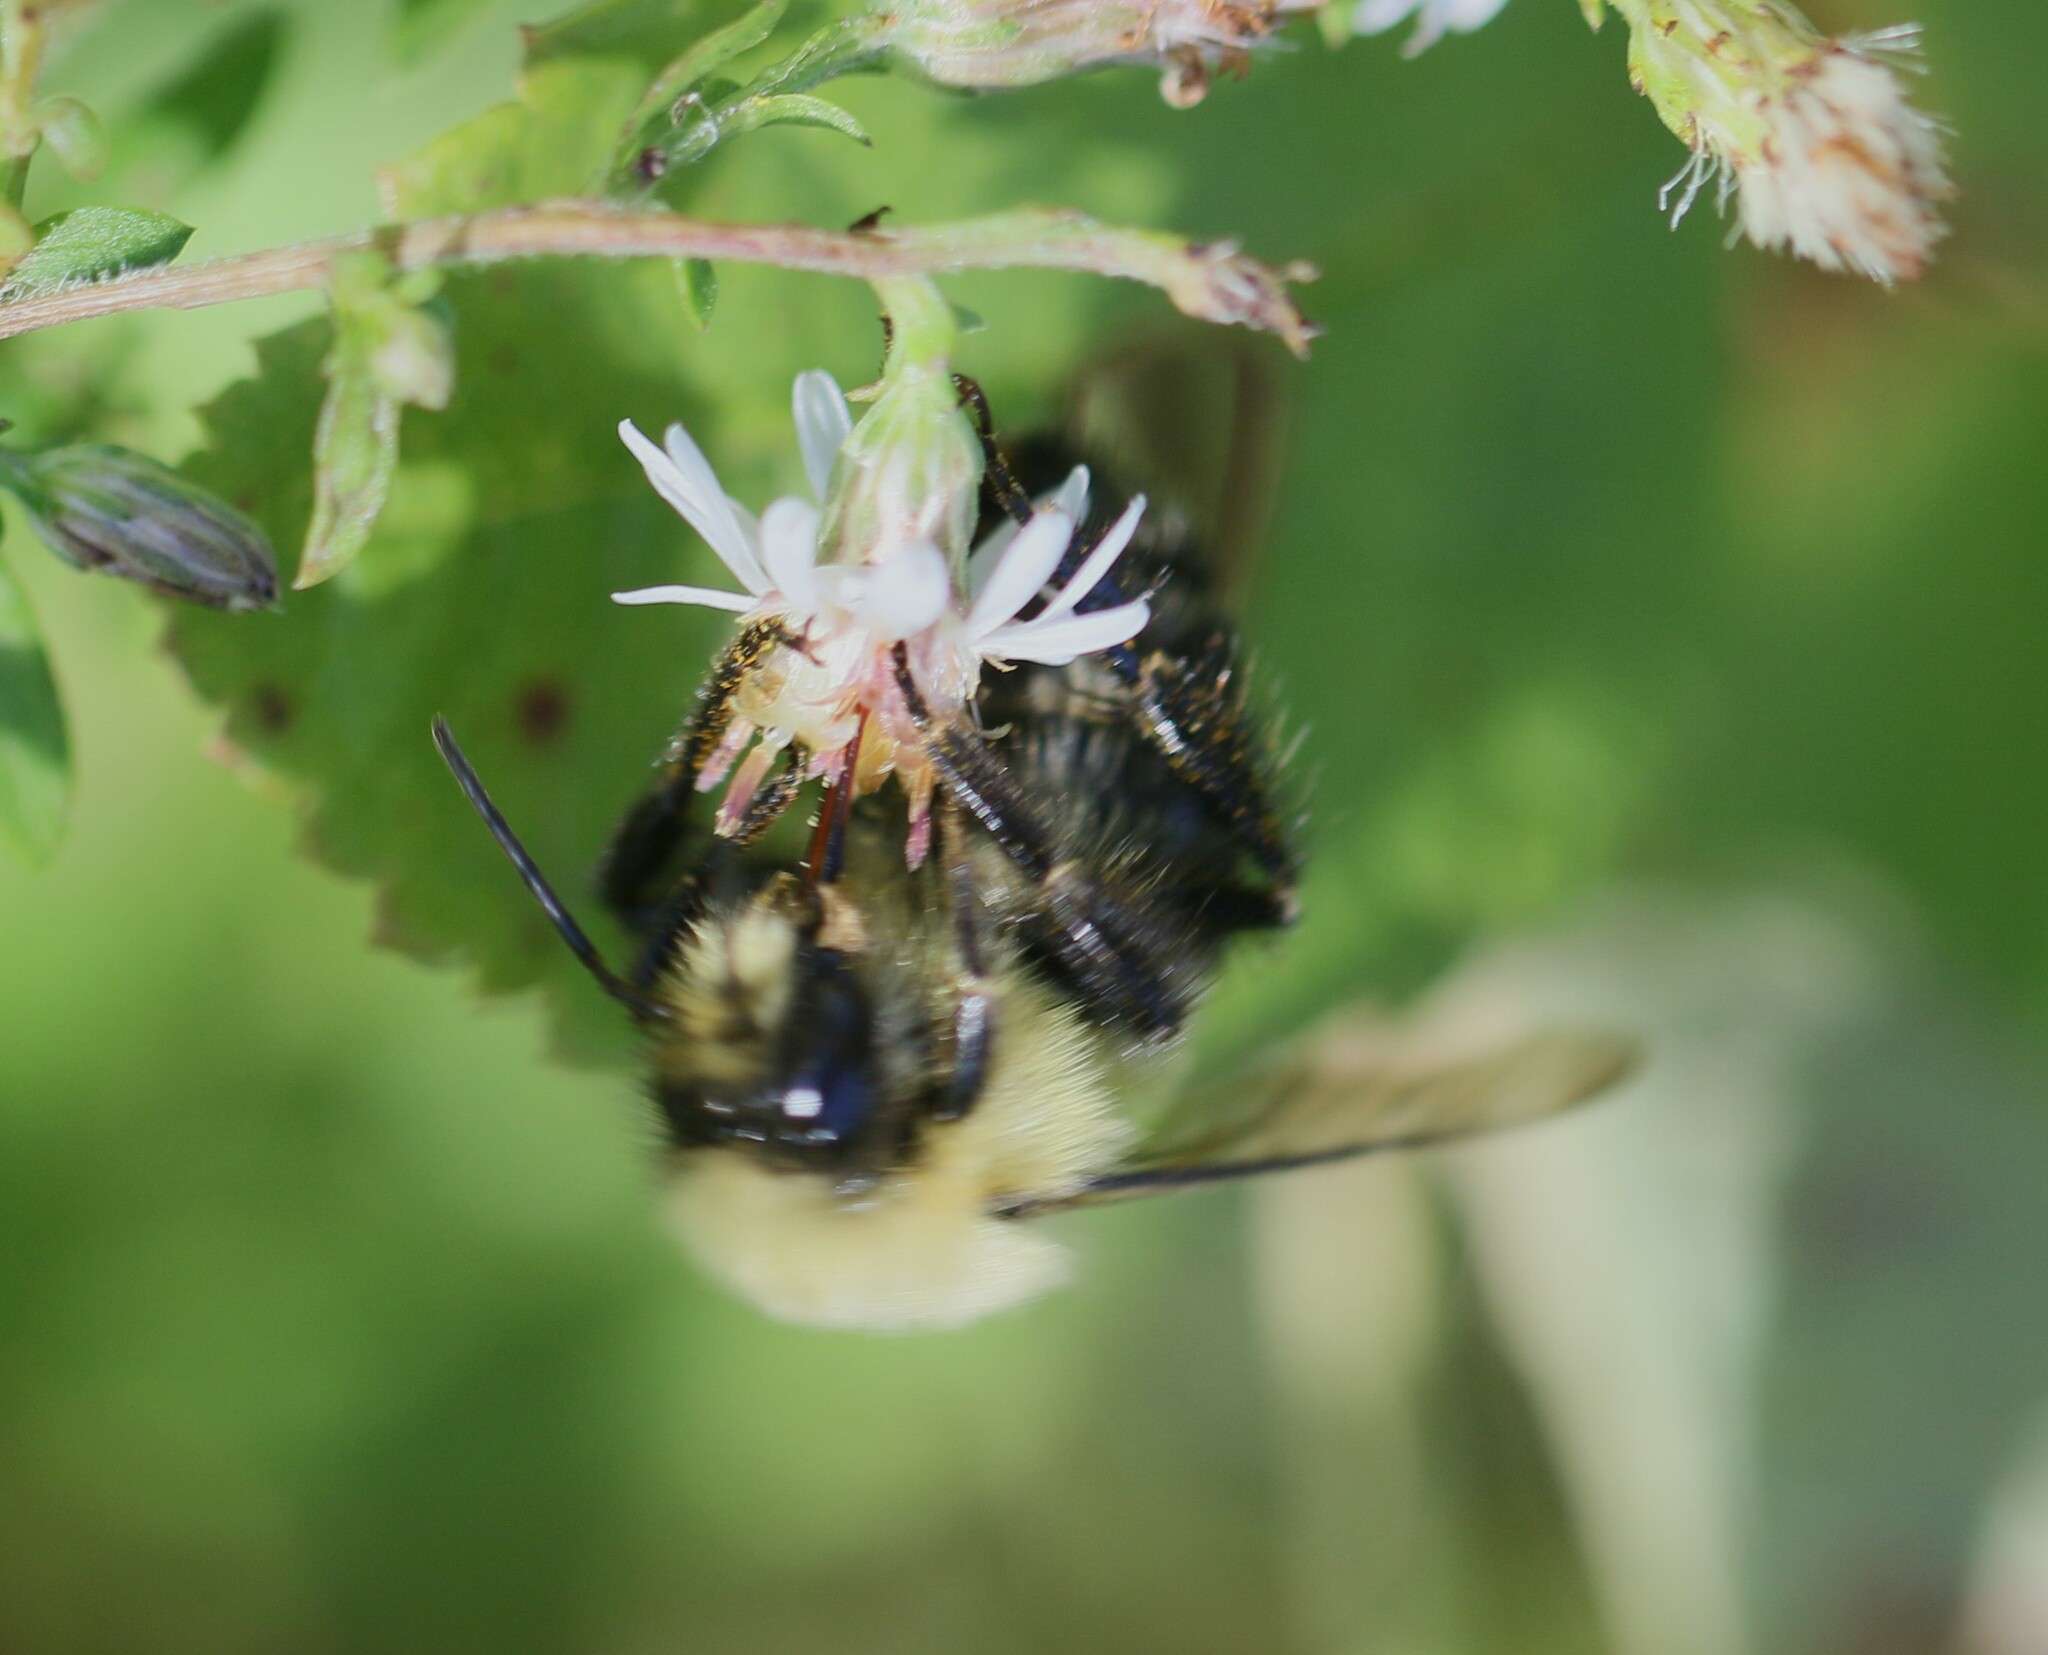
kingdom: Animalia
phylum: Arthropoda
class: Insecta
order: Hymenoptera
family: Apidae
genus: Bombus
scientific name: Bombus impatiens
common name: Common eastern bumble bee
